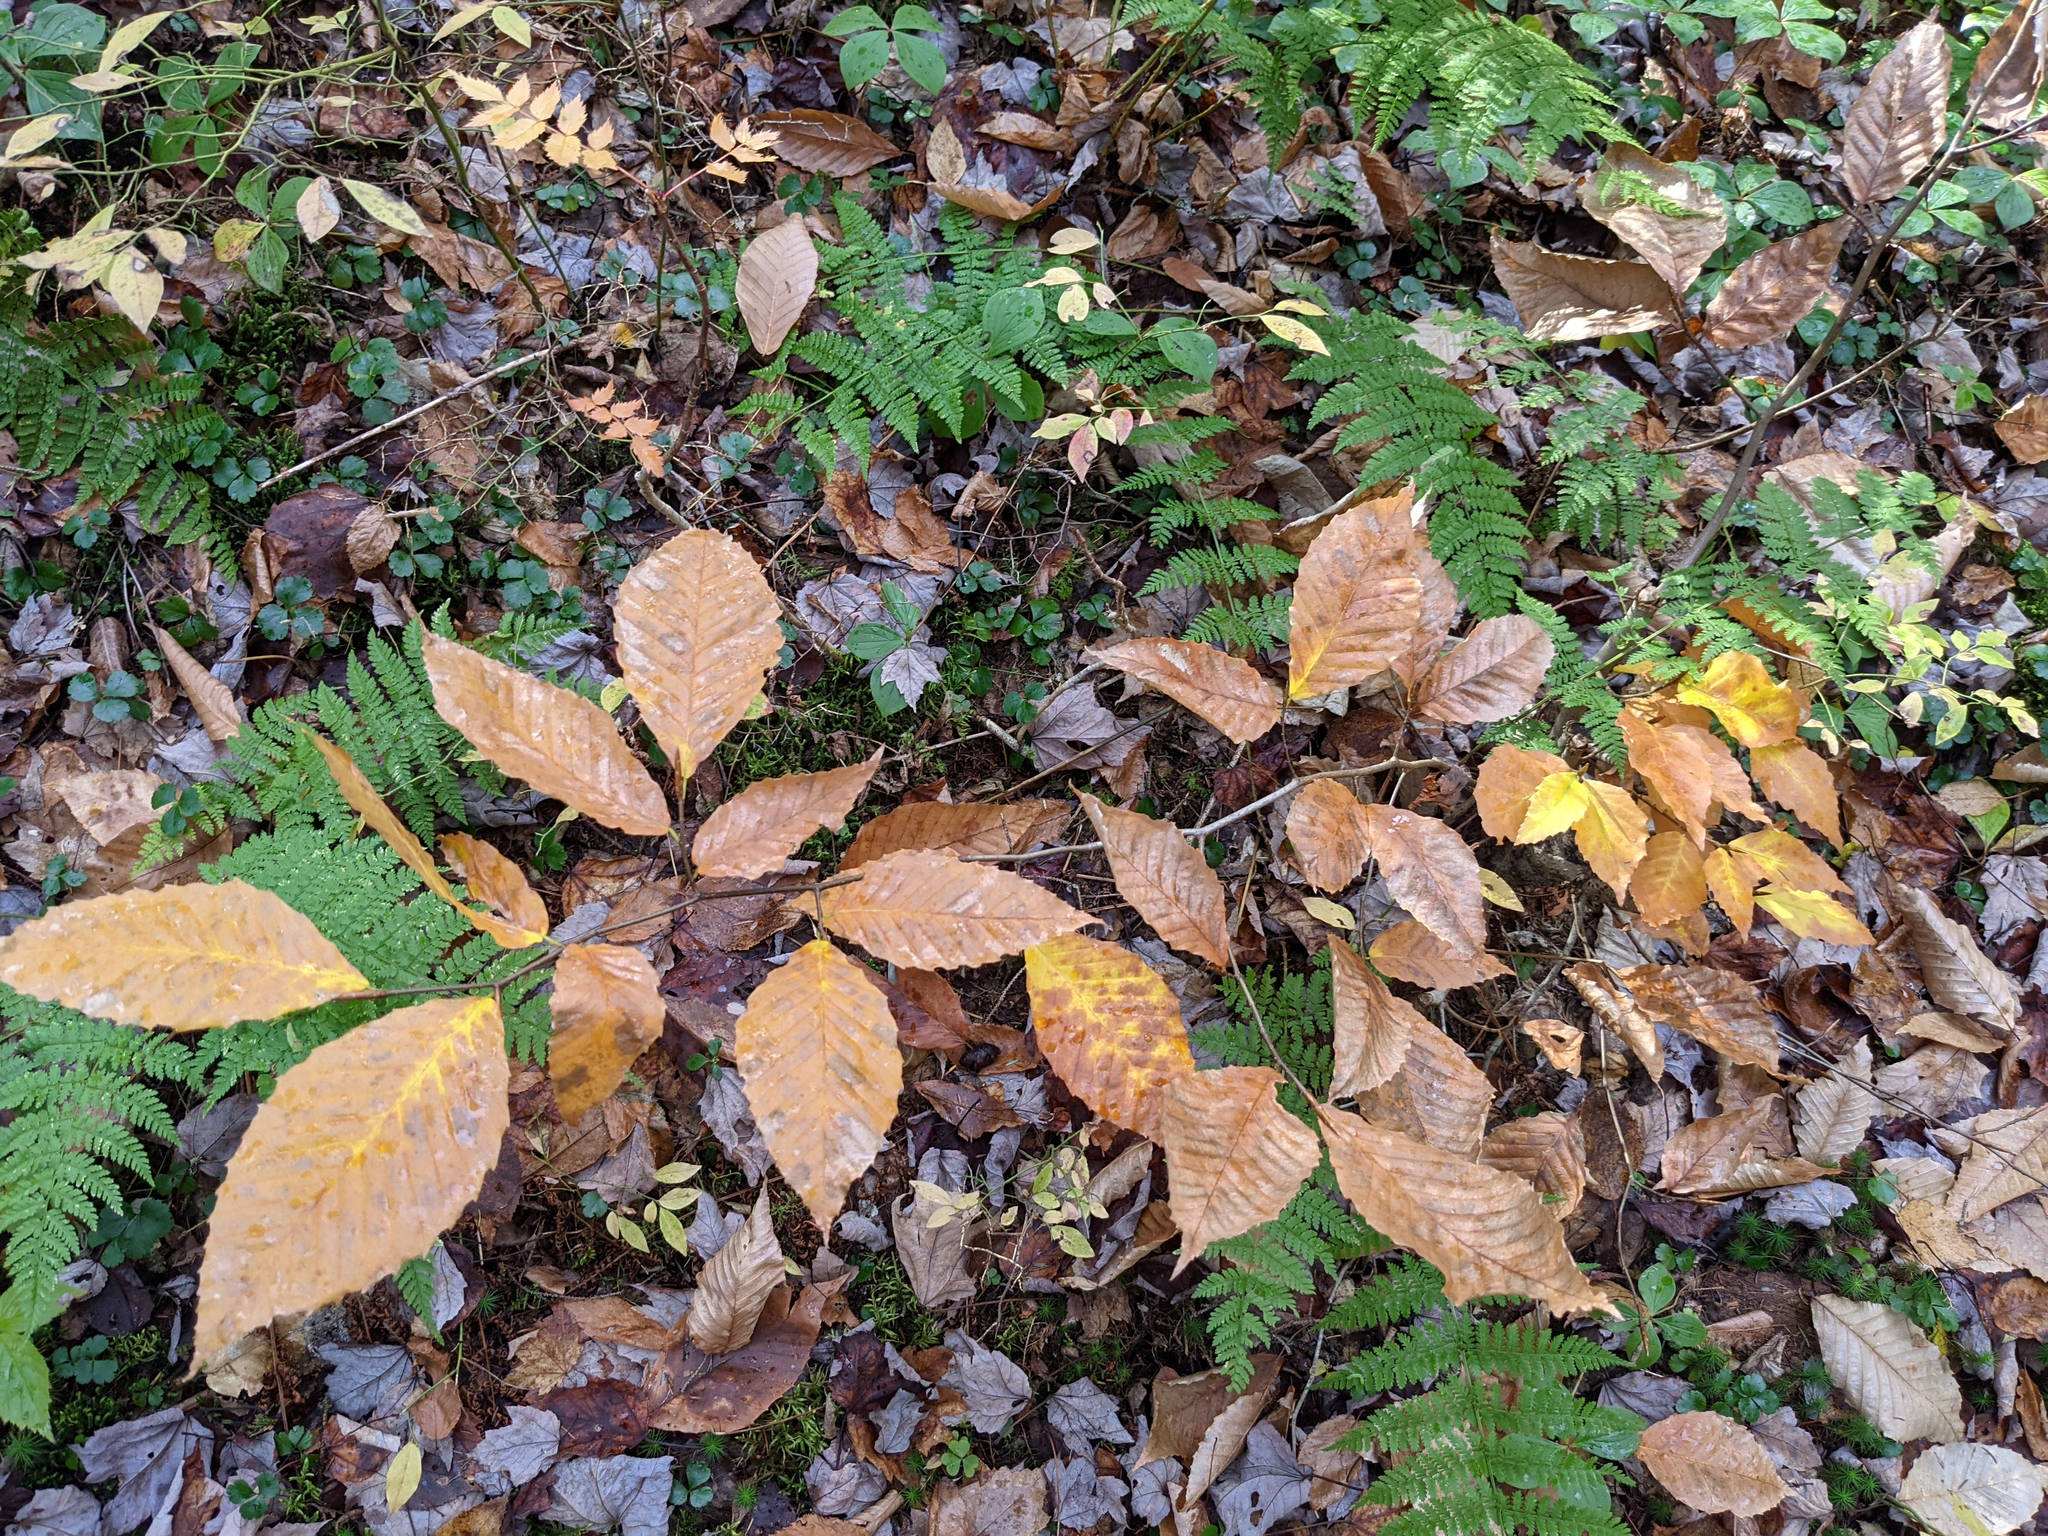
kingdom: Plantae
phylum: Tracheophyta
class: Magnoliopsida
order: Fagales
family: Fagaceae
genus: Fagus
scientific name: Fagus grandifolia
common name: American beech
